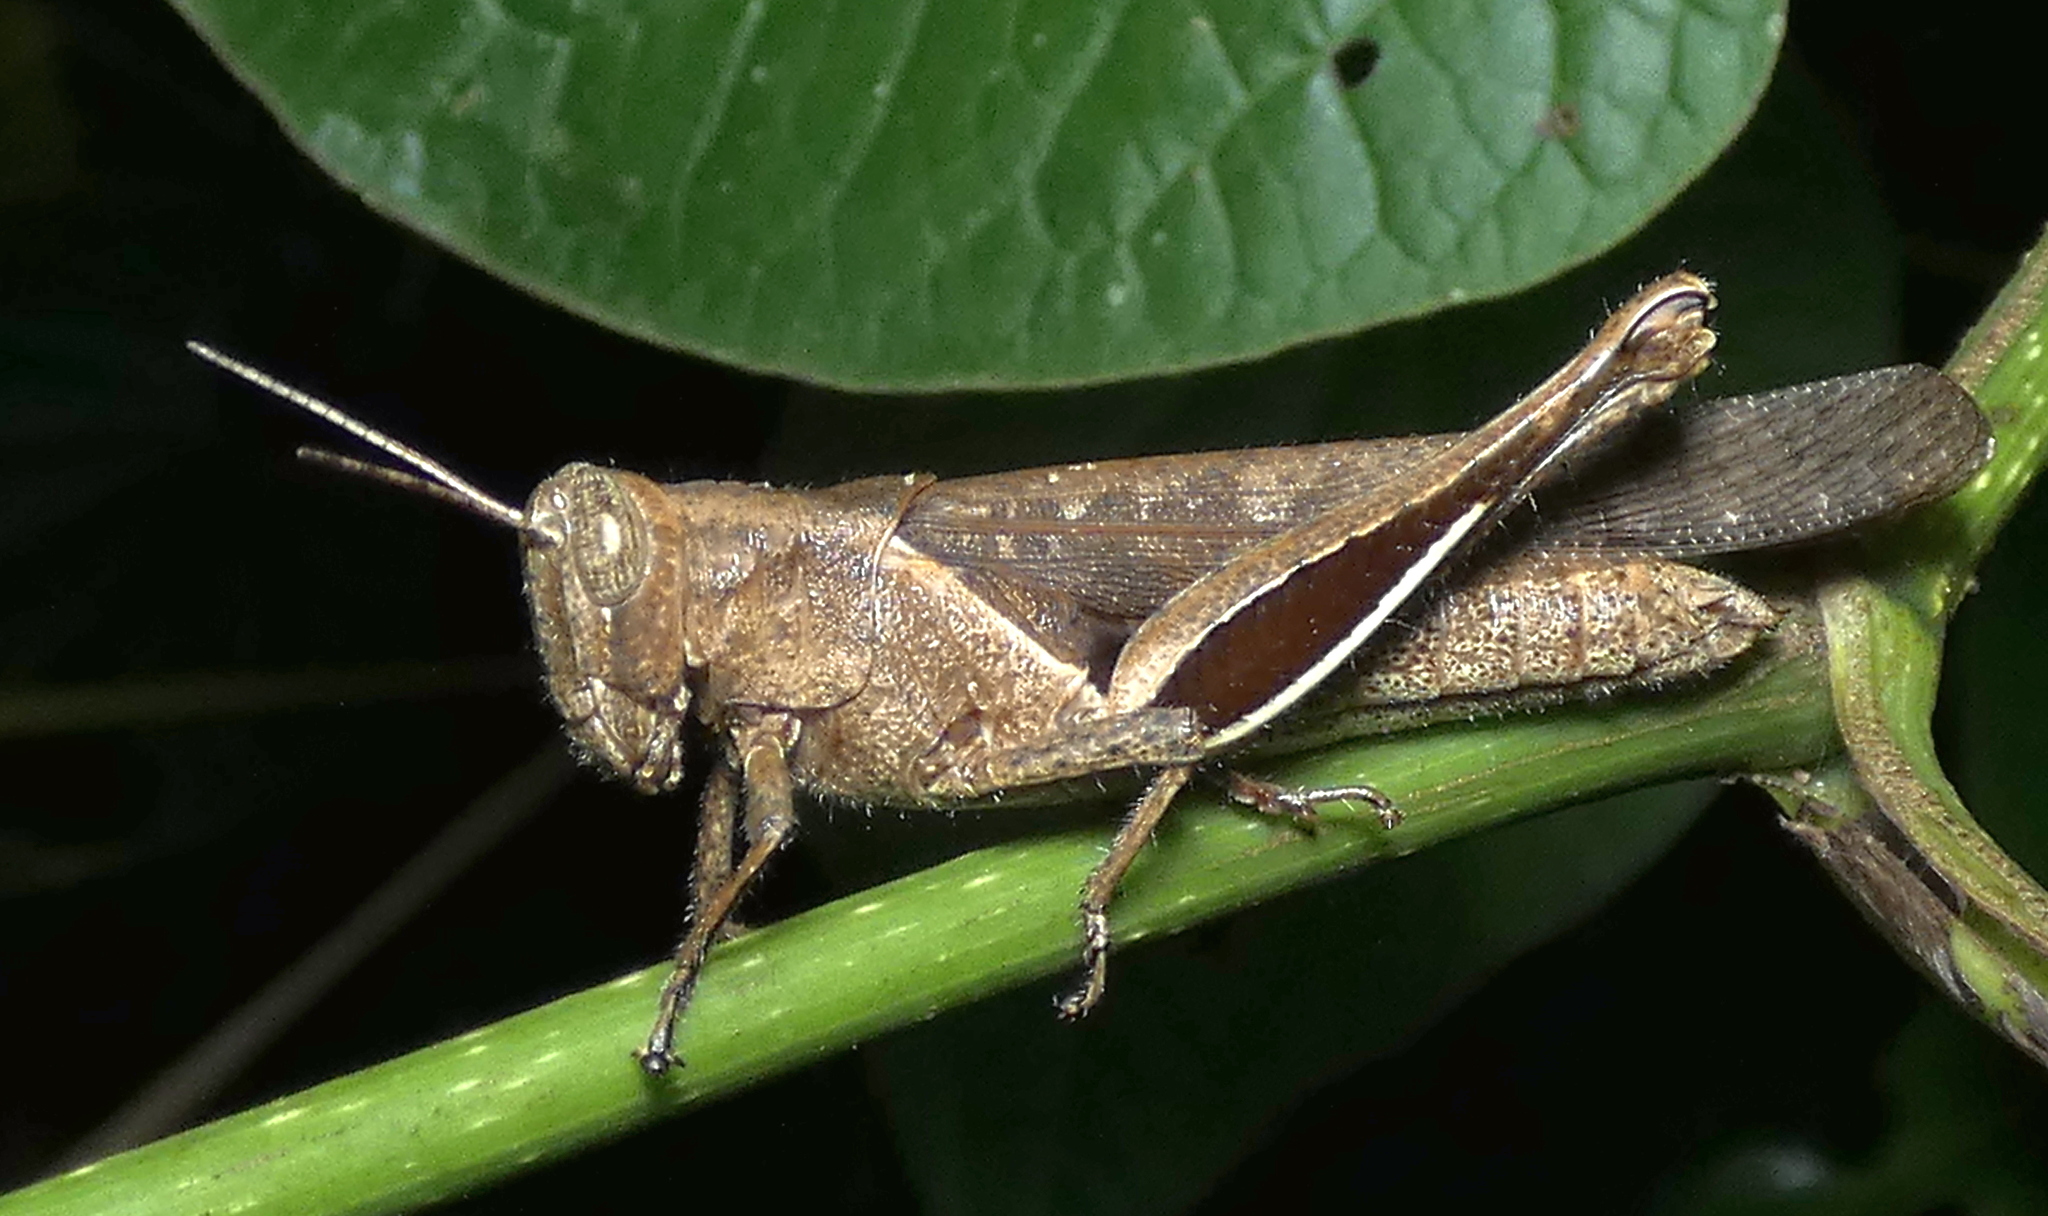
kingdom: Animalia
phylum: Arthropoda
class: Insecta
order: Orthoptera
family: Acrididae
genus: Abracris
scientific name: Abracris flavolineata
